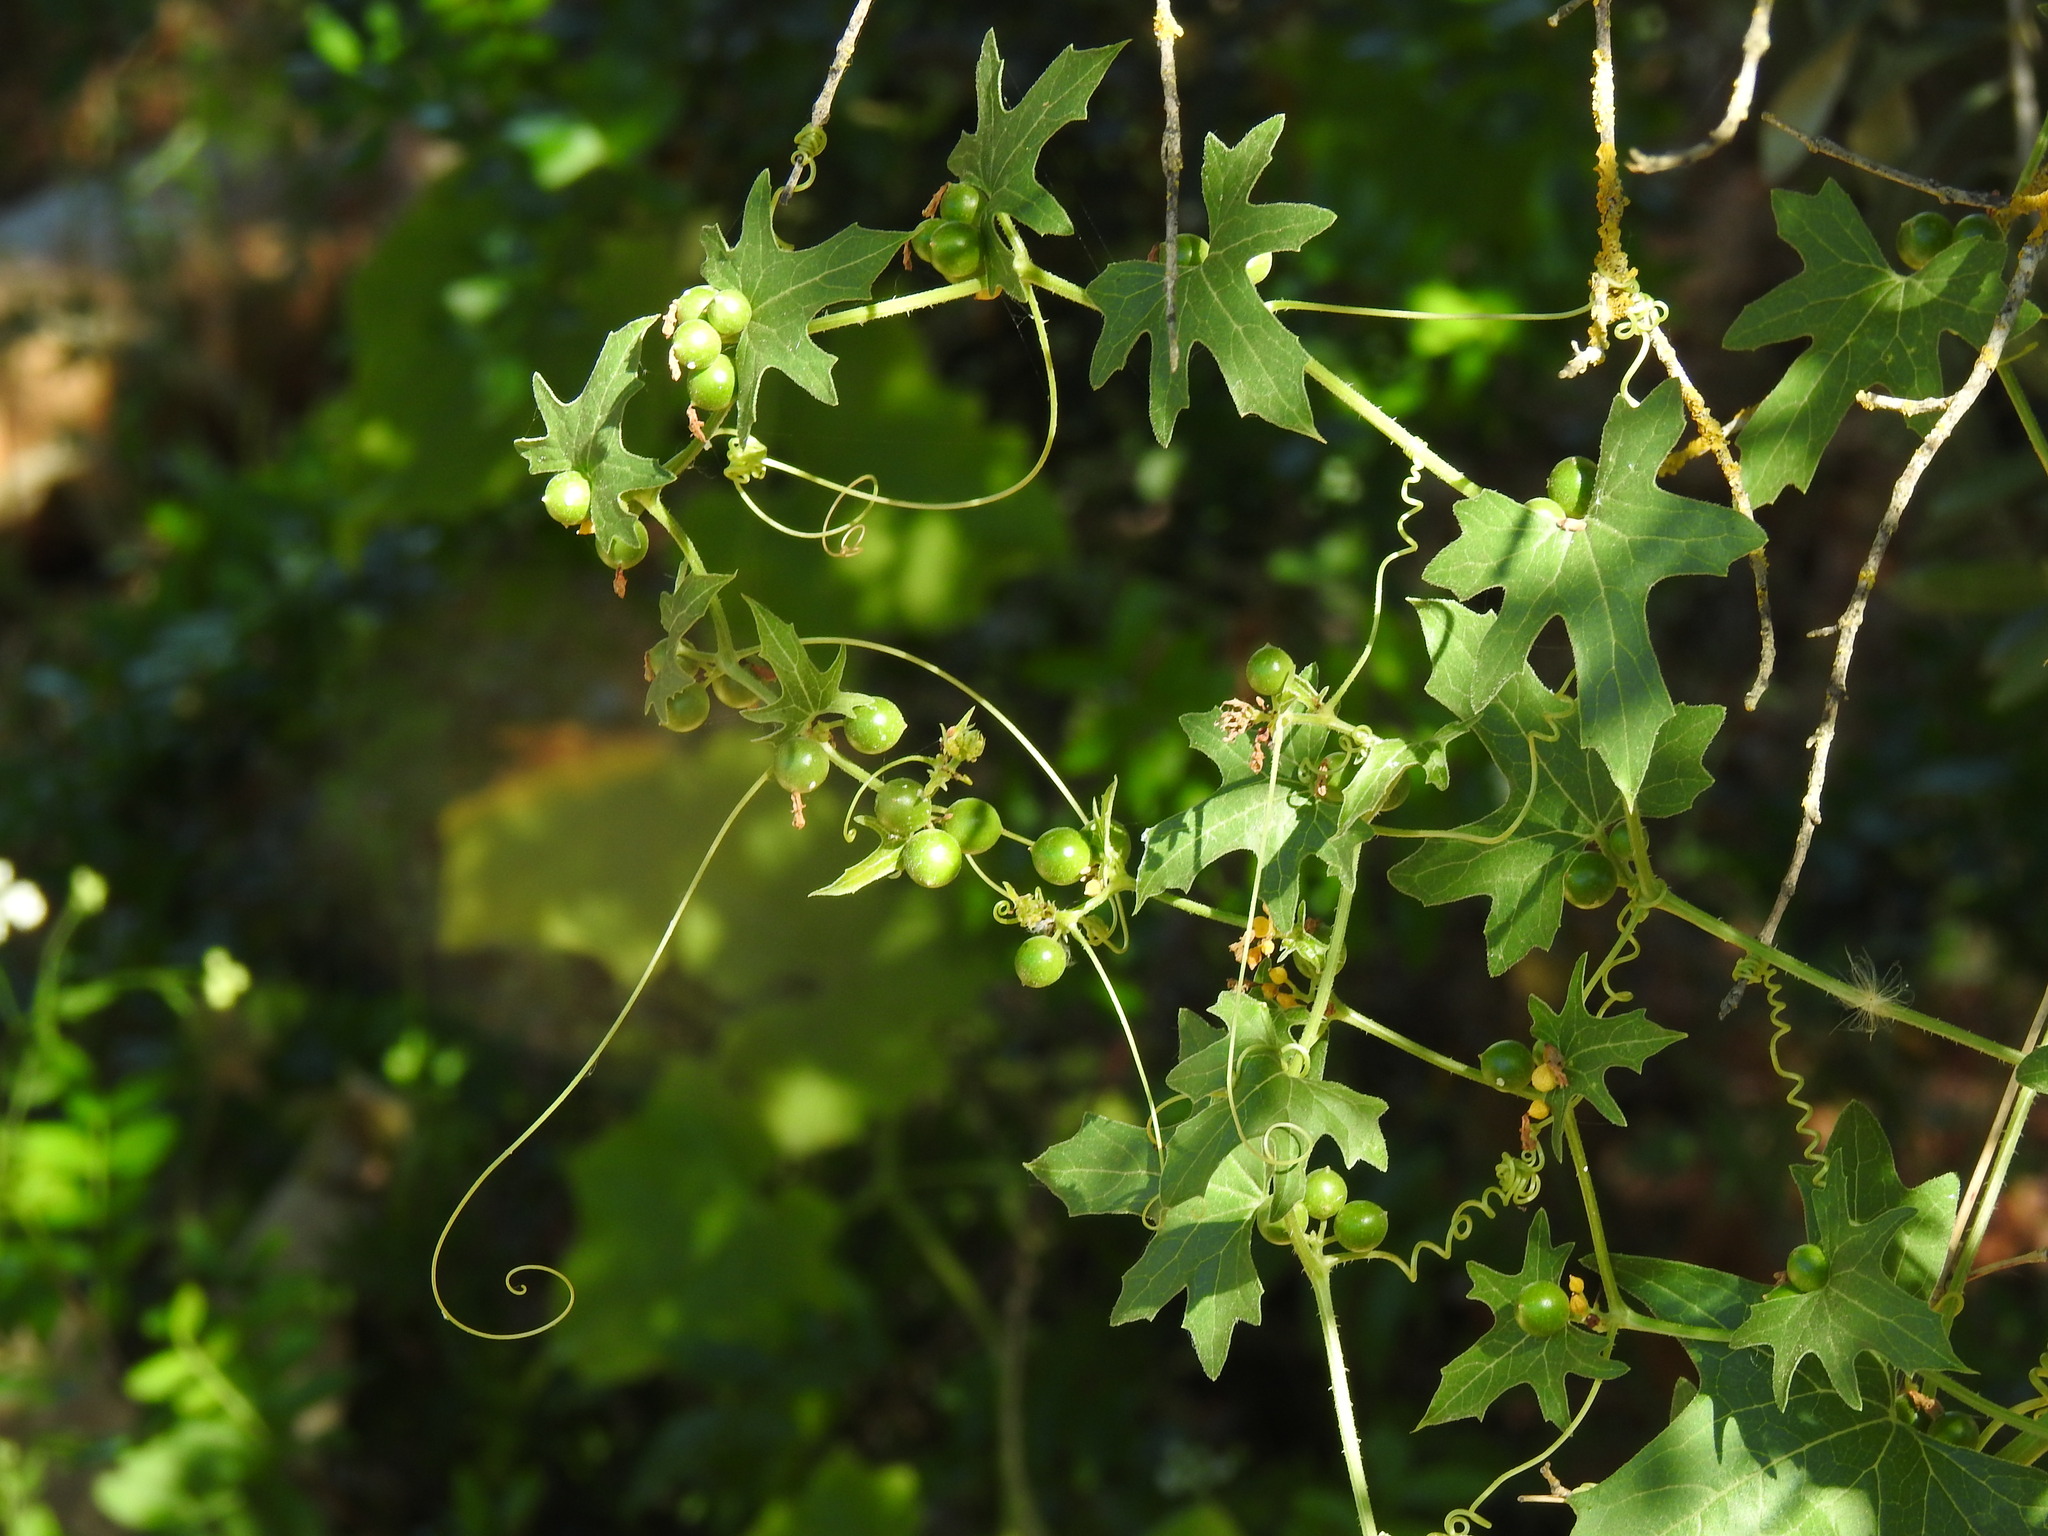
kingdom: Plantae
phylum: Tracheophyta
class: Magnoliopsida
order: Cucurbitales
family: Cucurbitaceae
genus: Bryonia
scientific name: Bryonia cretica
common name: Cretan bryony
